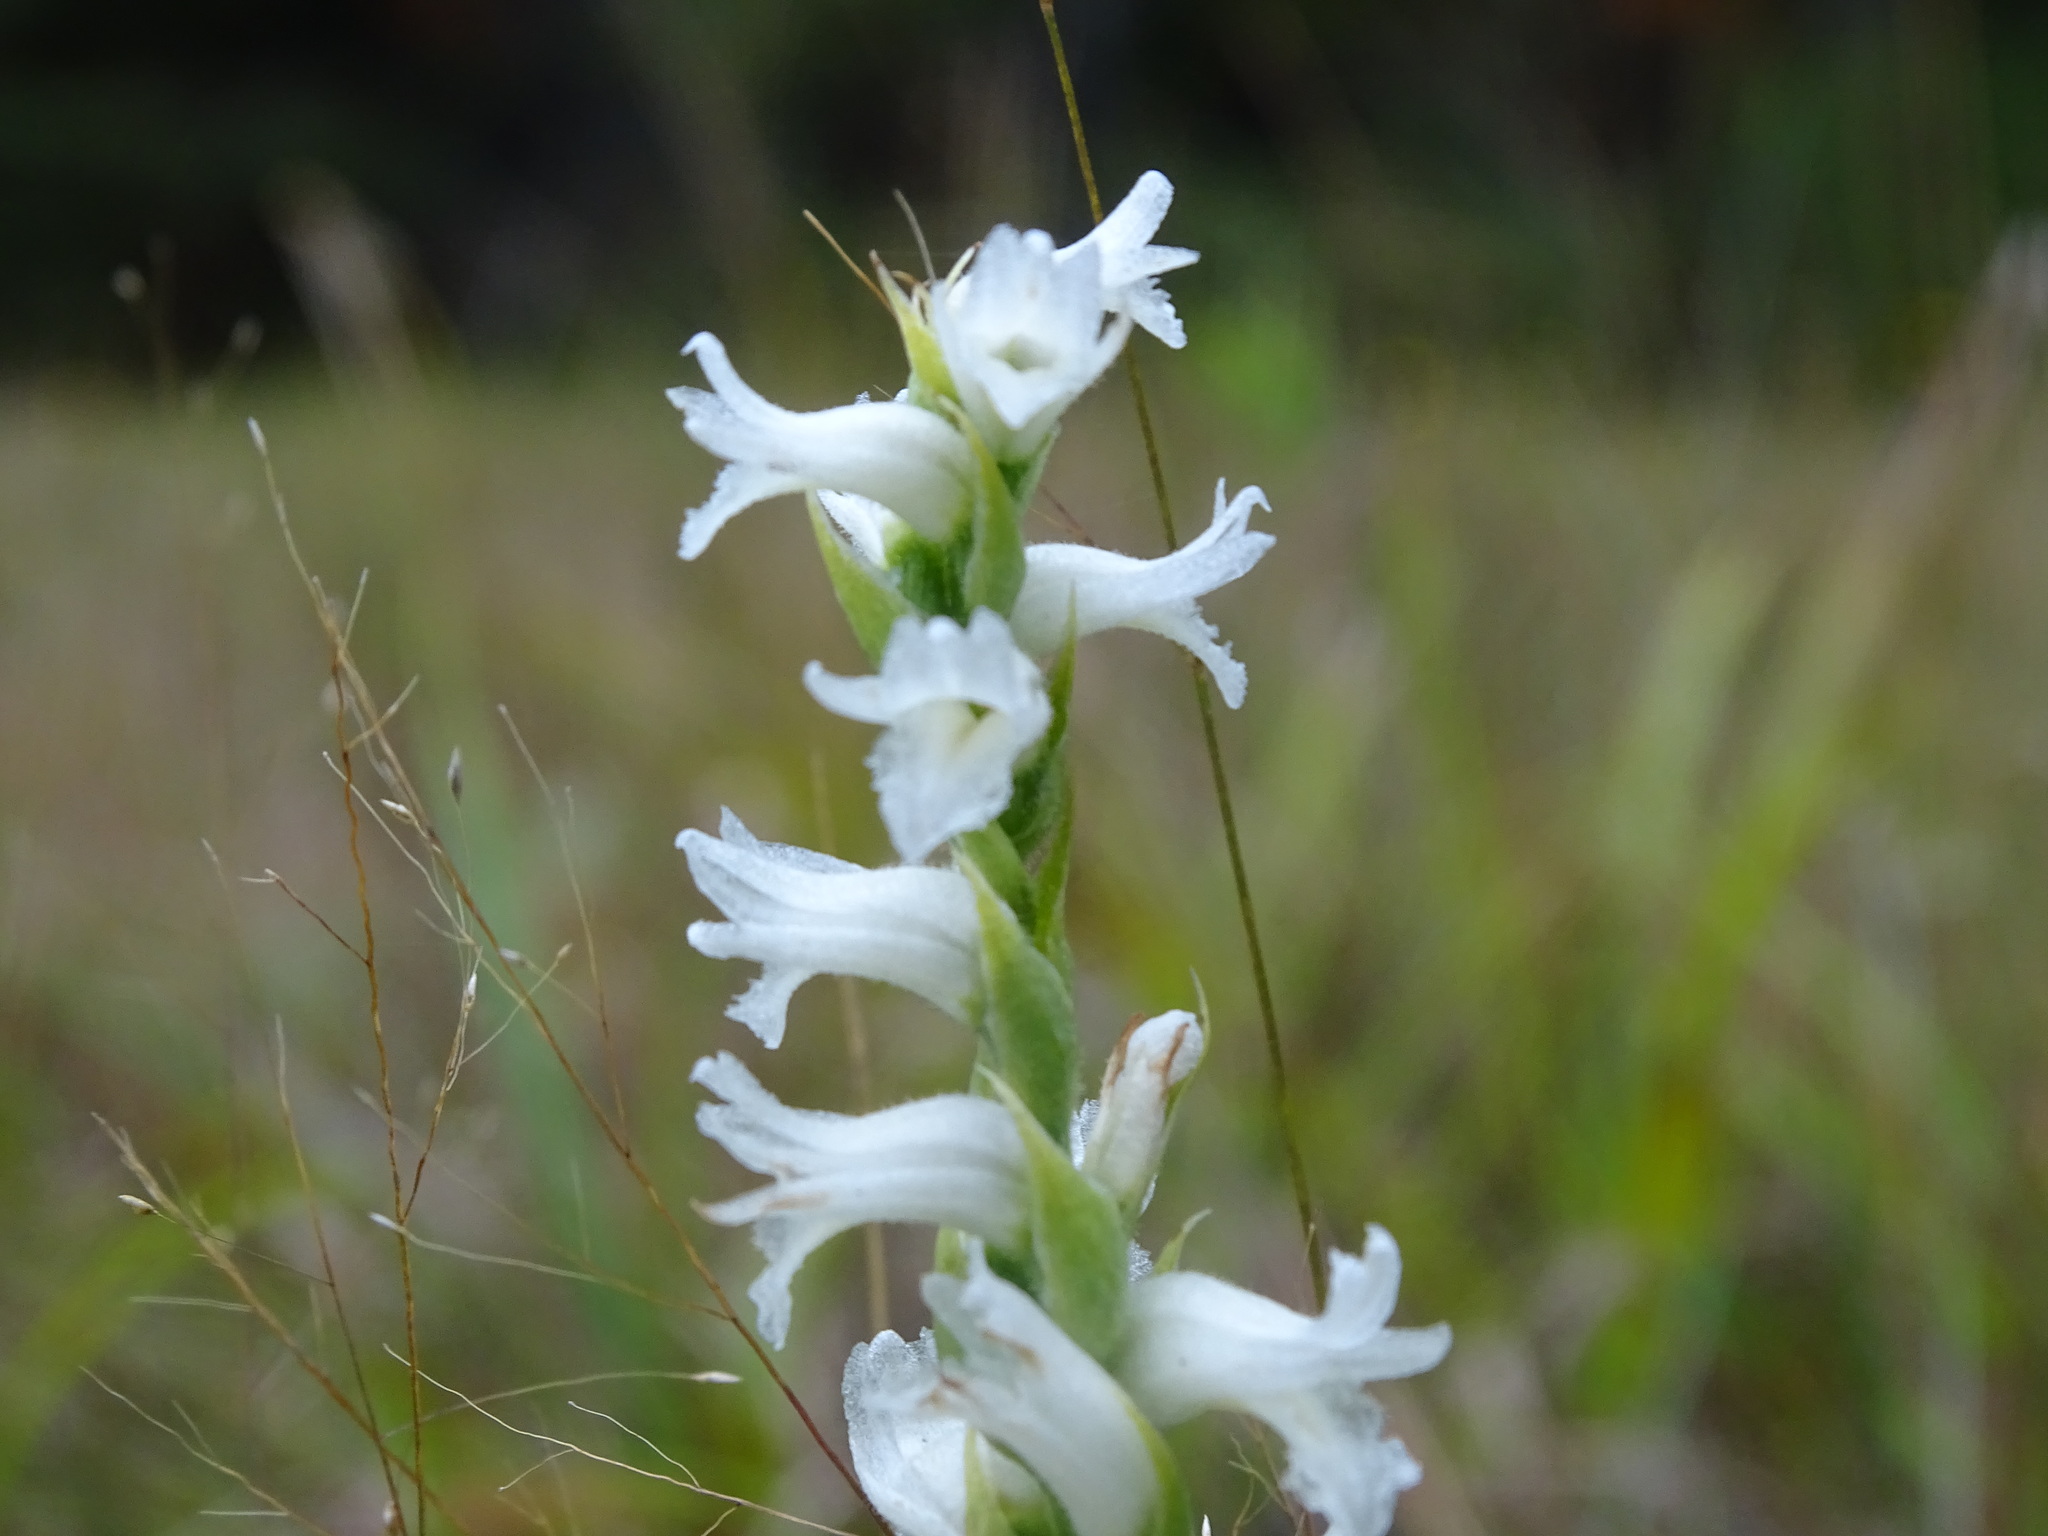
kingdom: Plantae
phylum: Tracheophyta
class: Liliopsida
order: Asparagales
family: Orchidaceae
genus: Spiranthes
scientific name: Spiranthes incurva
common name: Sphinx ladies'-tresses
